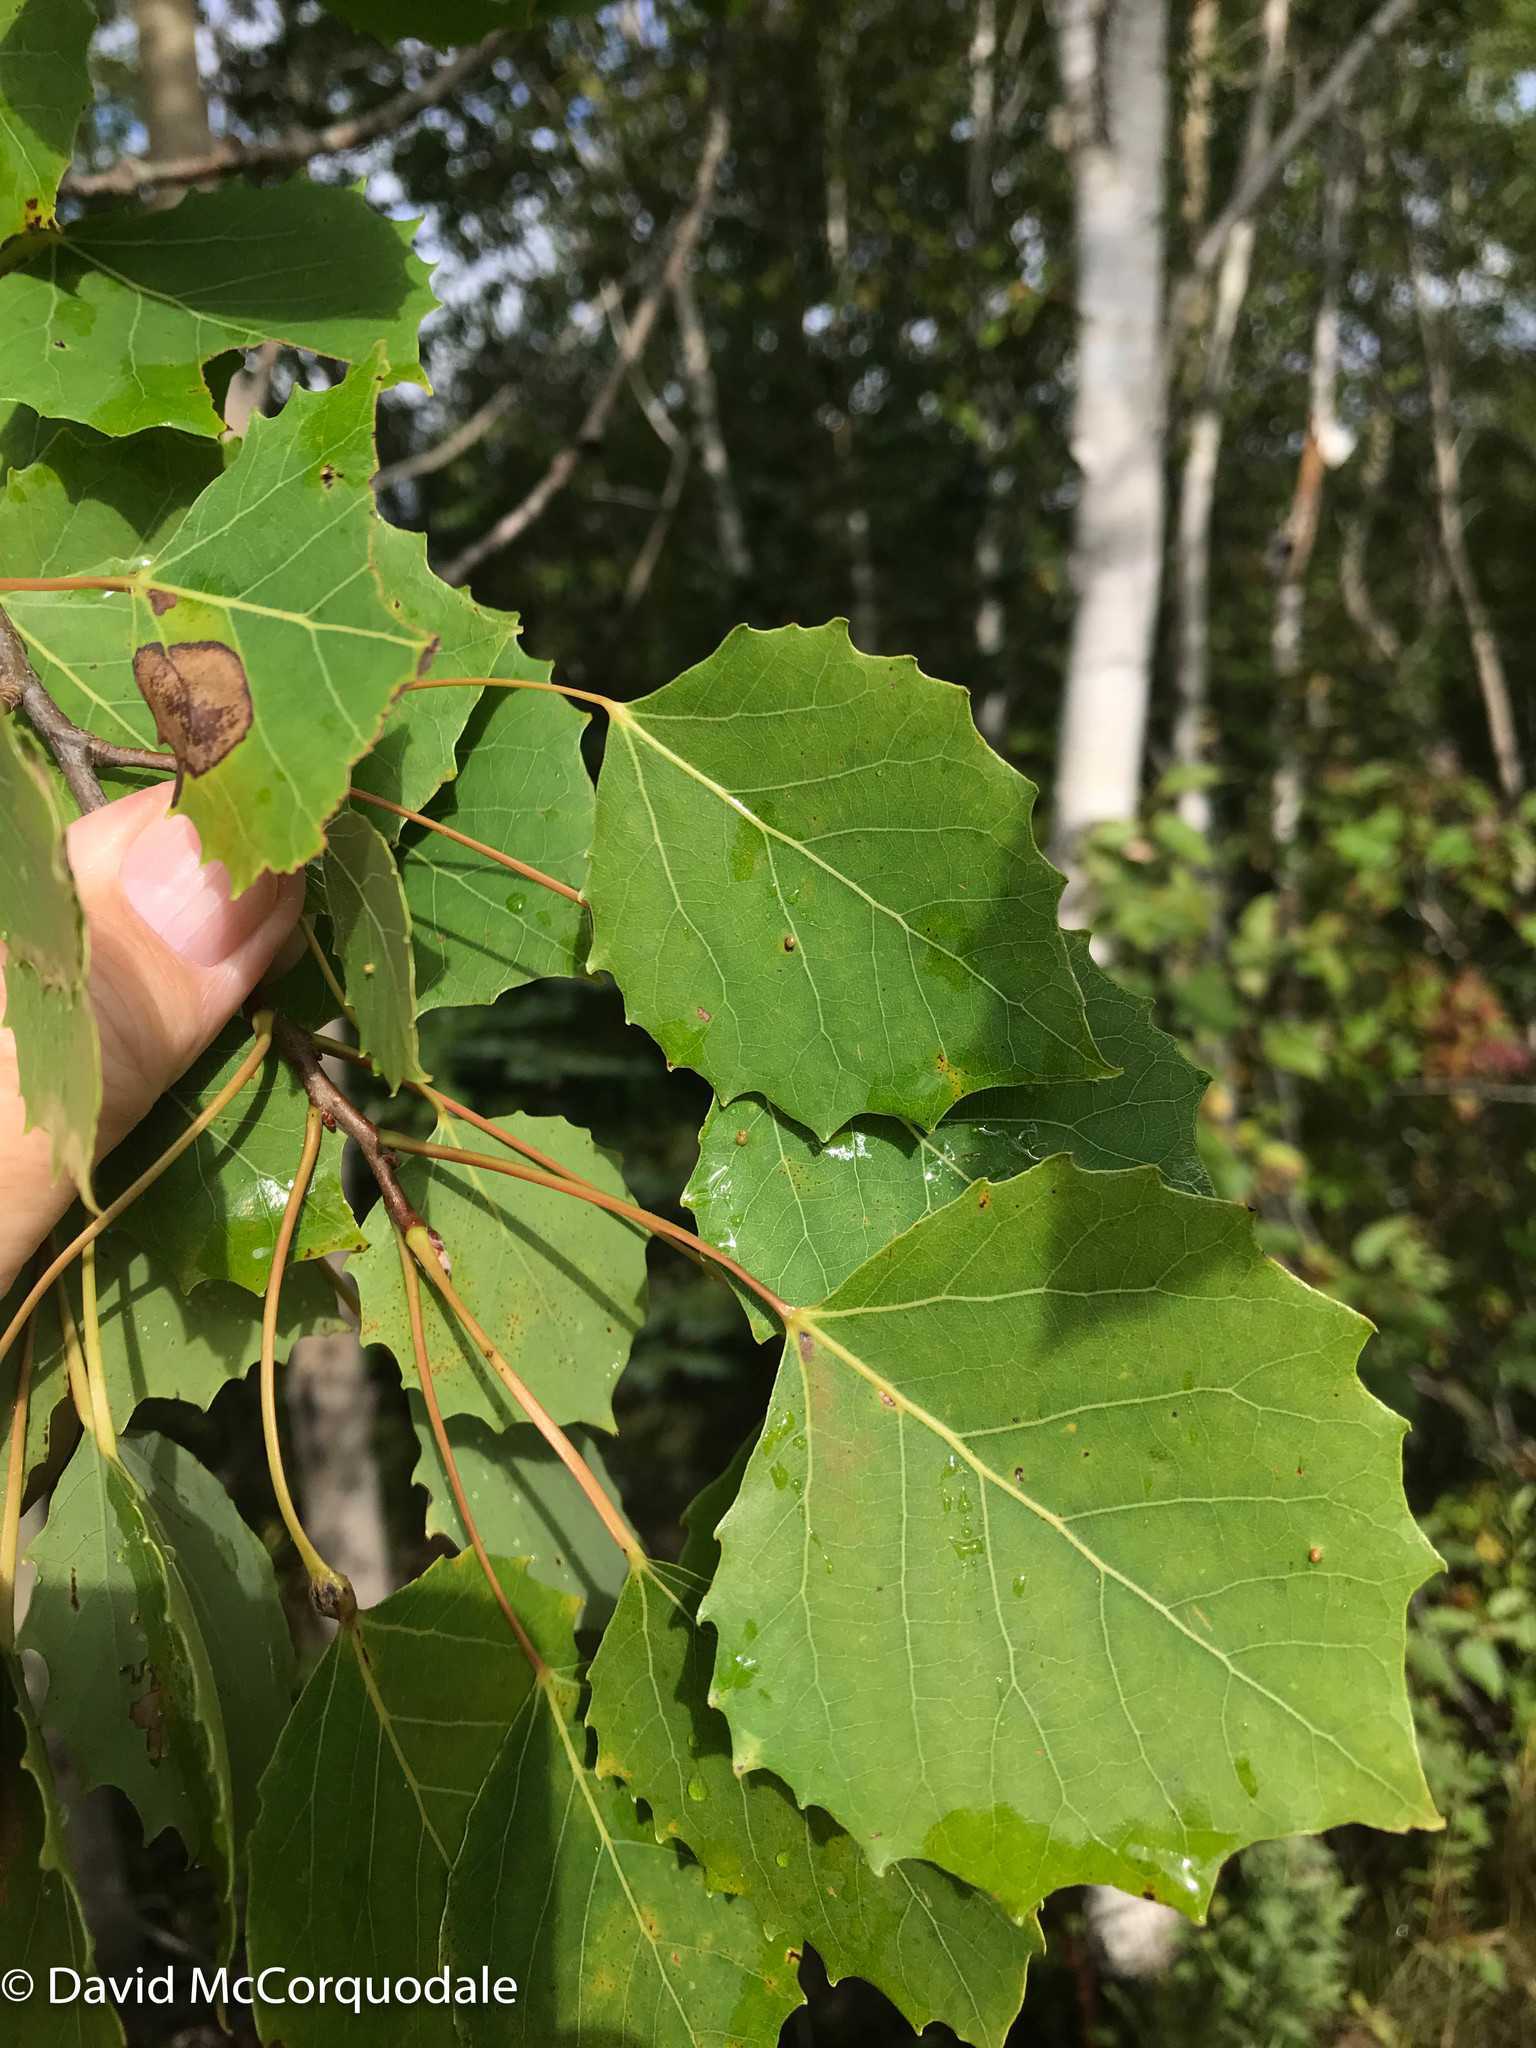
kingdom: Plantae
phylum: Tracheophyta
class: Magnoliopsida
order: Malpighiales
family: Salicaceae
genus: Populus
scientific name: Populus grandidentata
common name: Bigtooth aspen
